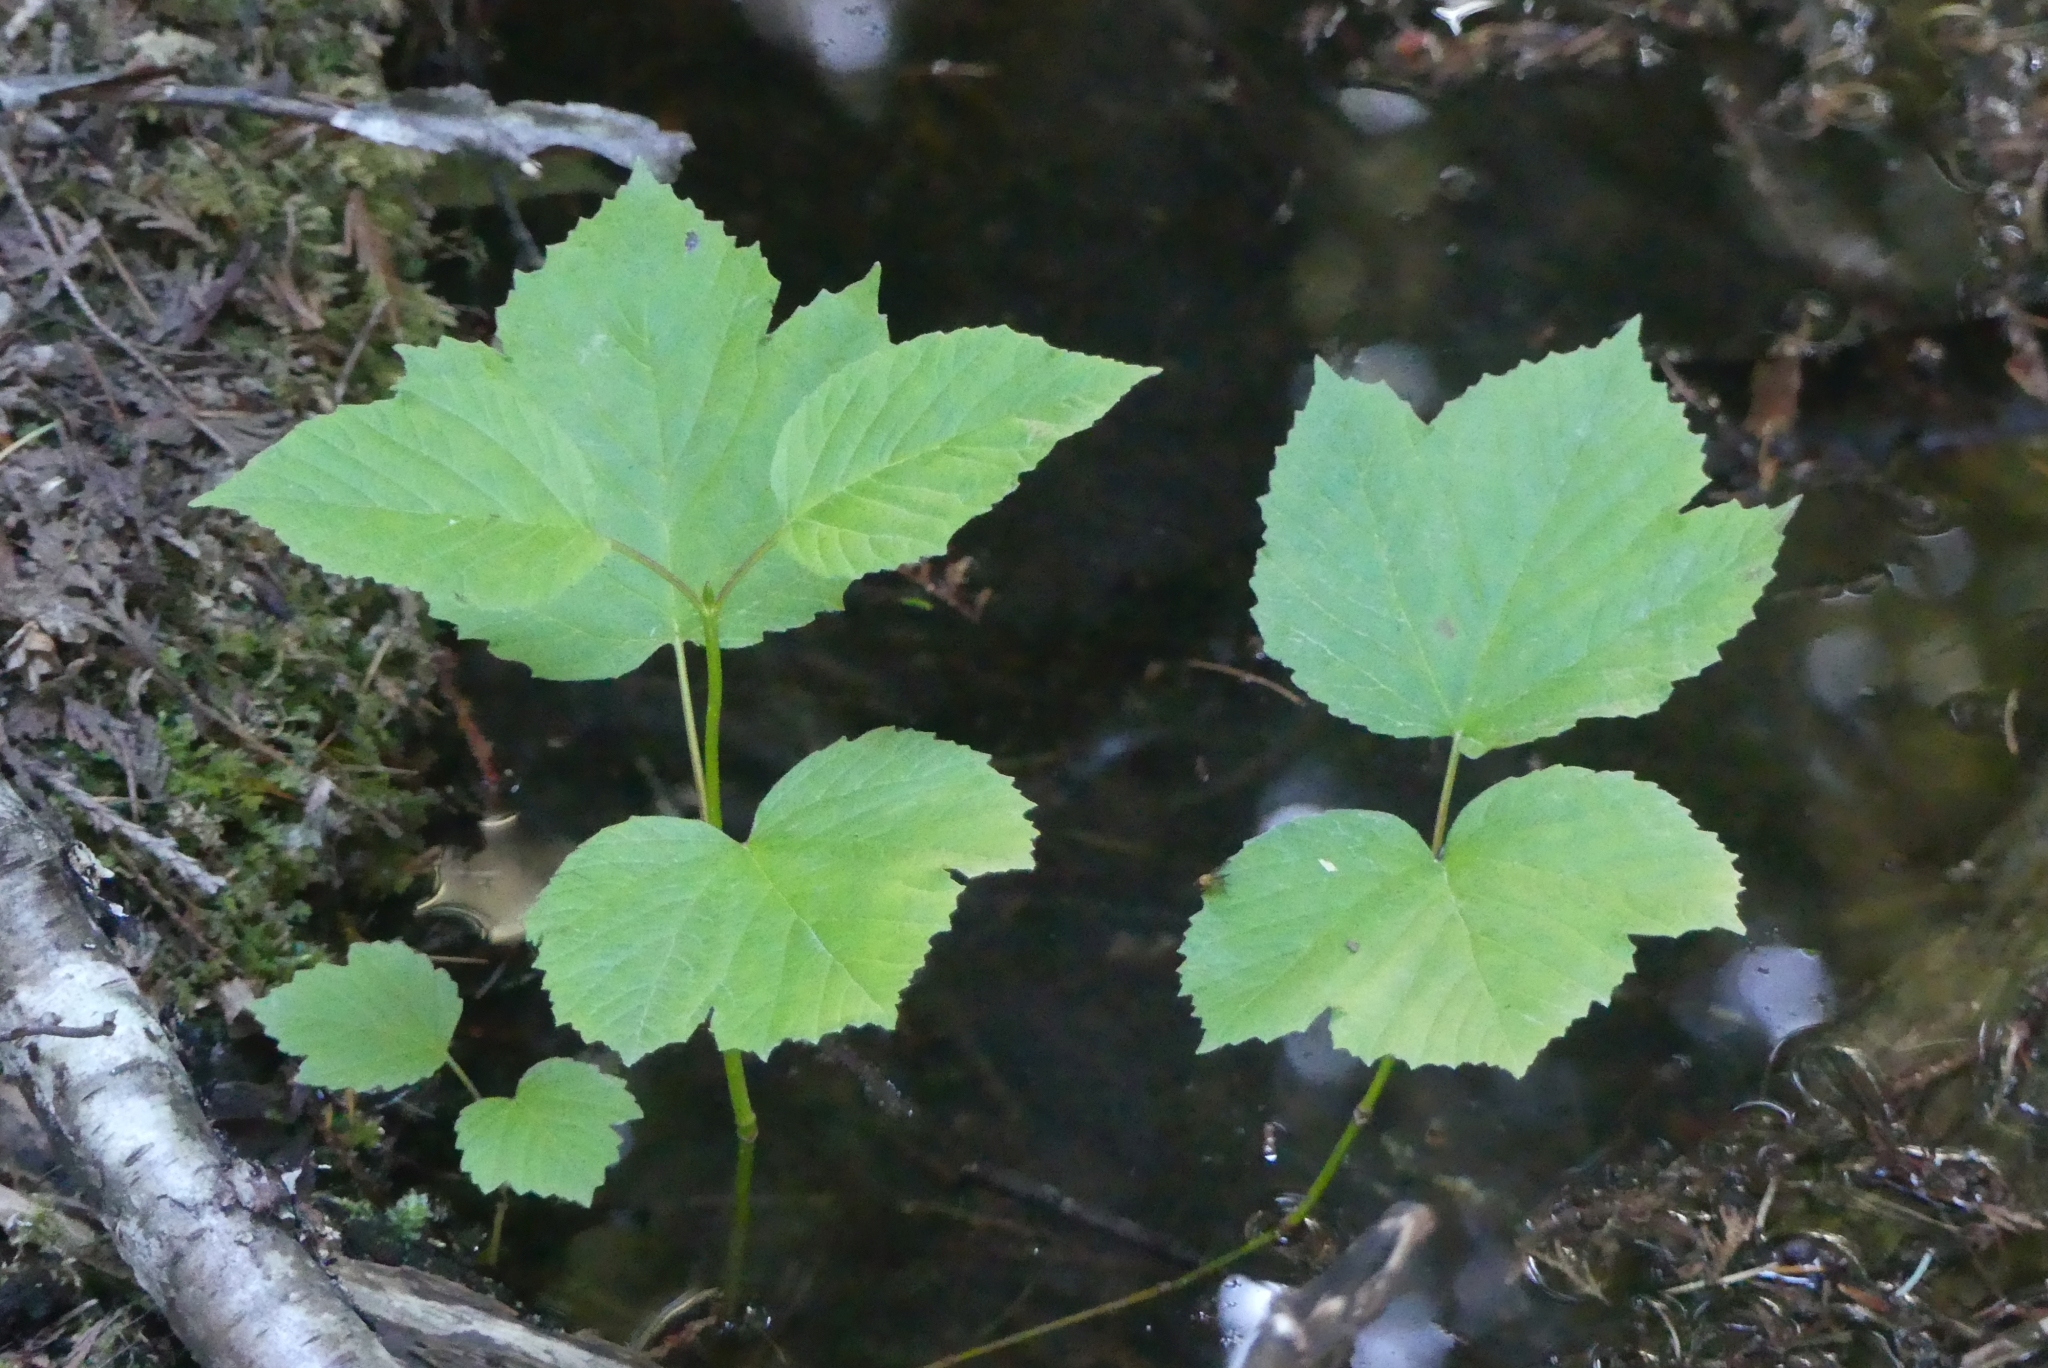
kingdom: Plantae
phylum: Tracheophyta
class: Magnoliopsida
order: Dipsacales
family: Viburnaceae
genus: Viburnum
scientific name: Viburnum edule
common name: Mooseberry
